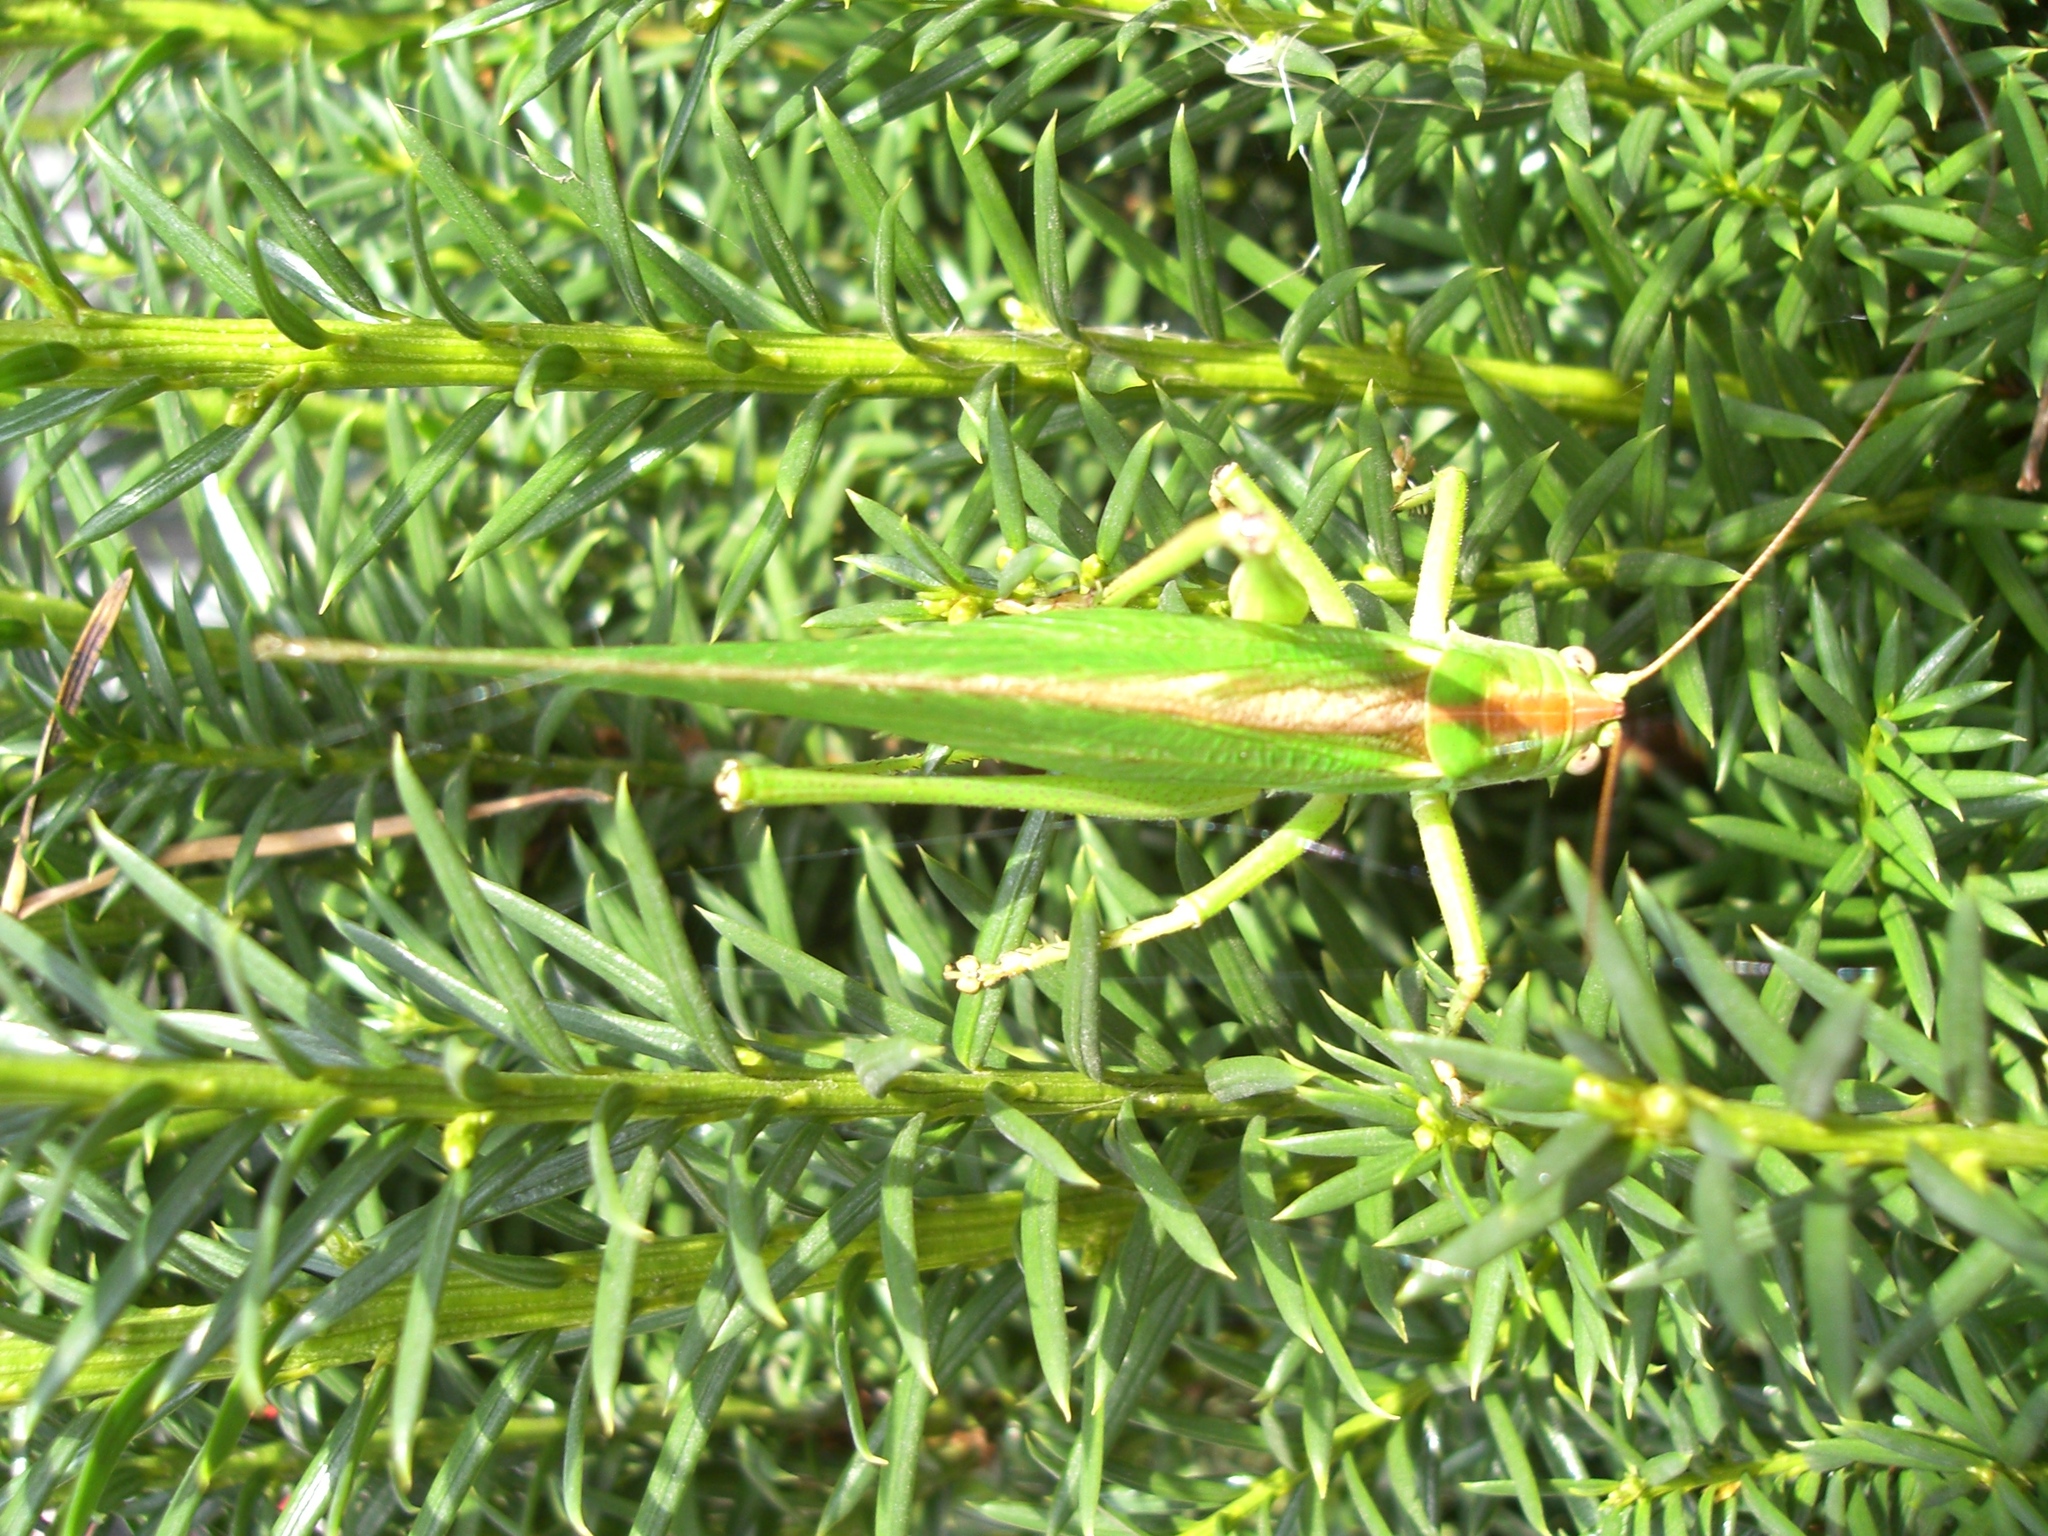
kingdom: Animalia
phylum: Arthropoda
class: Insecta
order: Orthoptera
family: Tettigoniidae
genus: Tettigonia
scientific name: Tettigonia viridissima
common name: Great green bush-cricket
